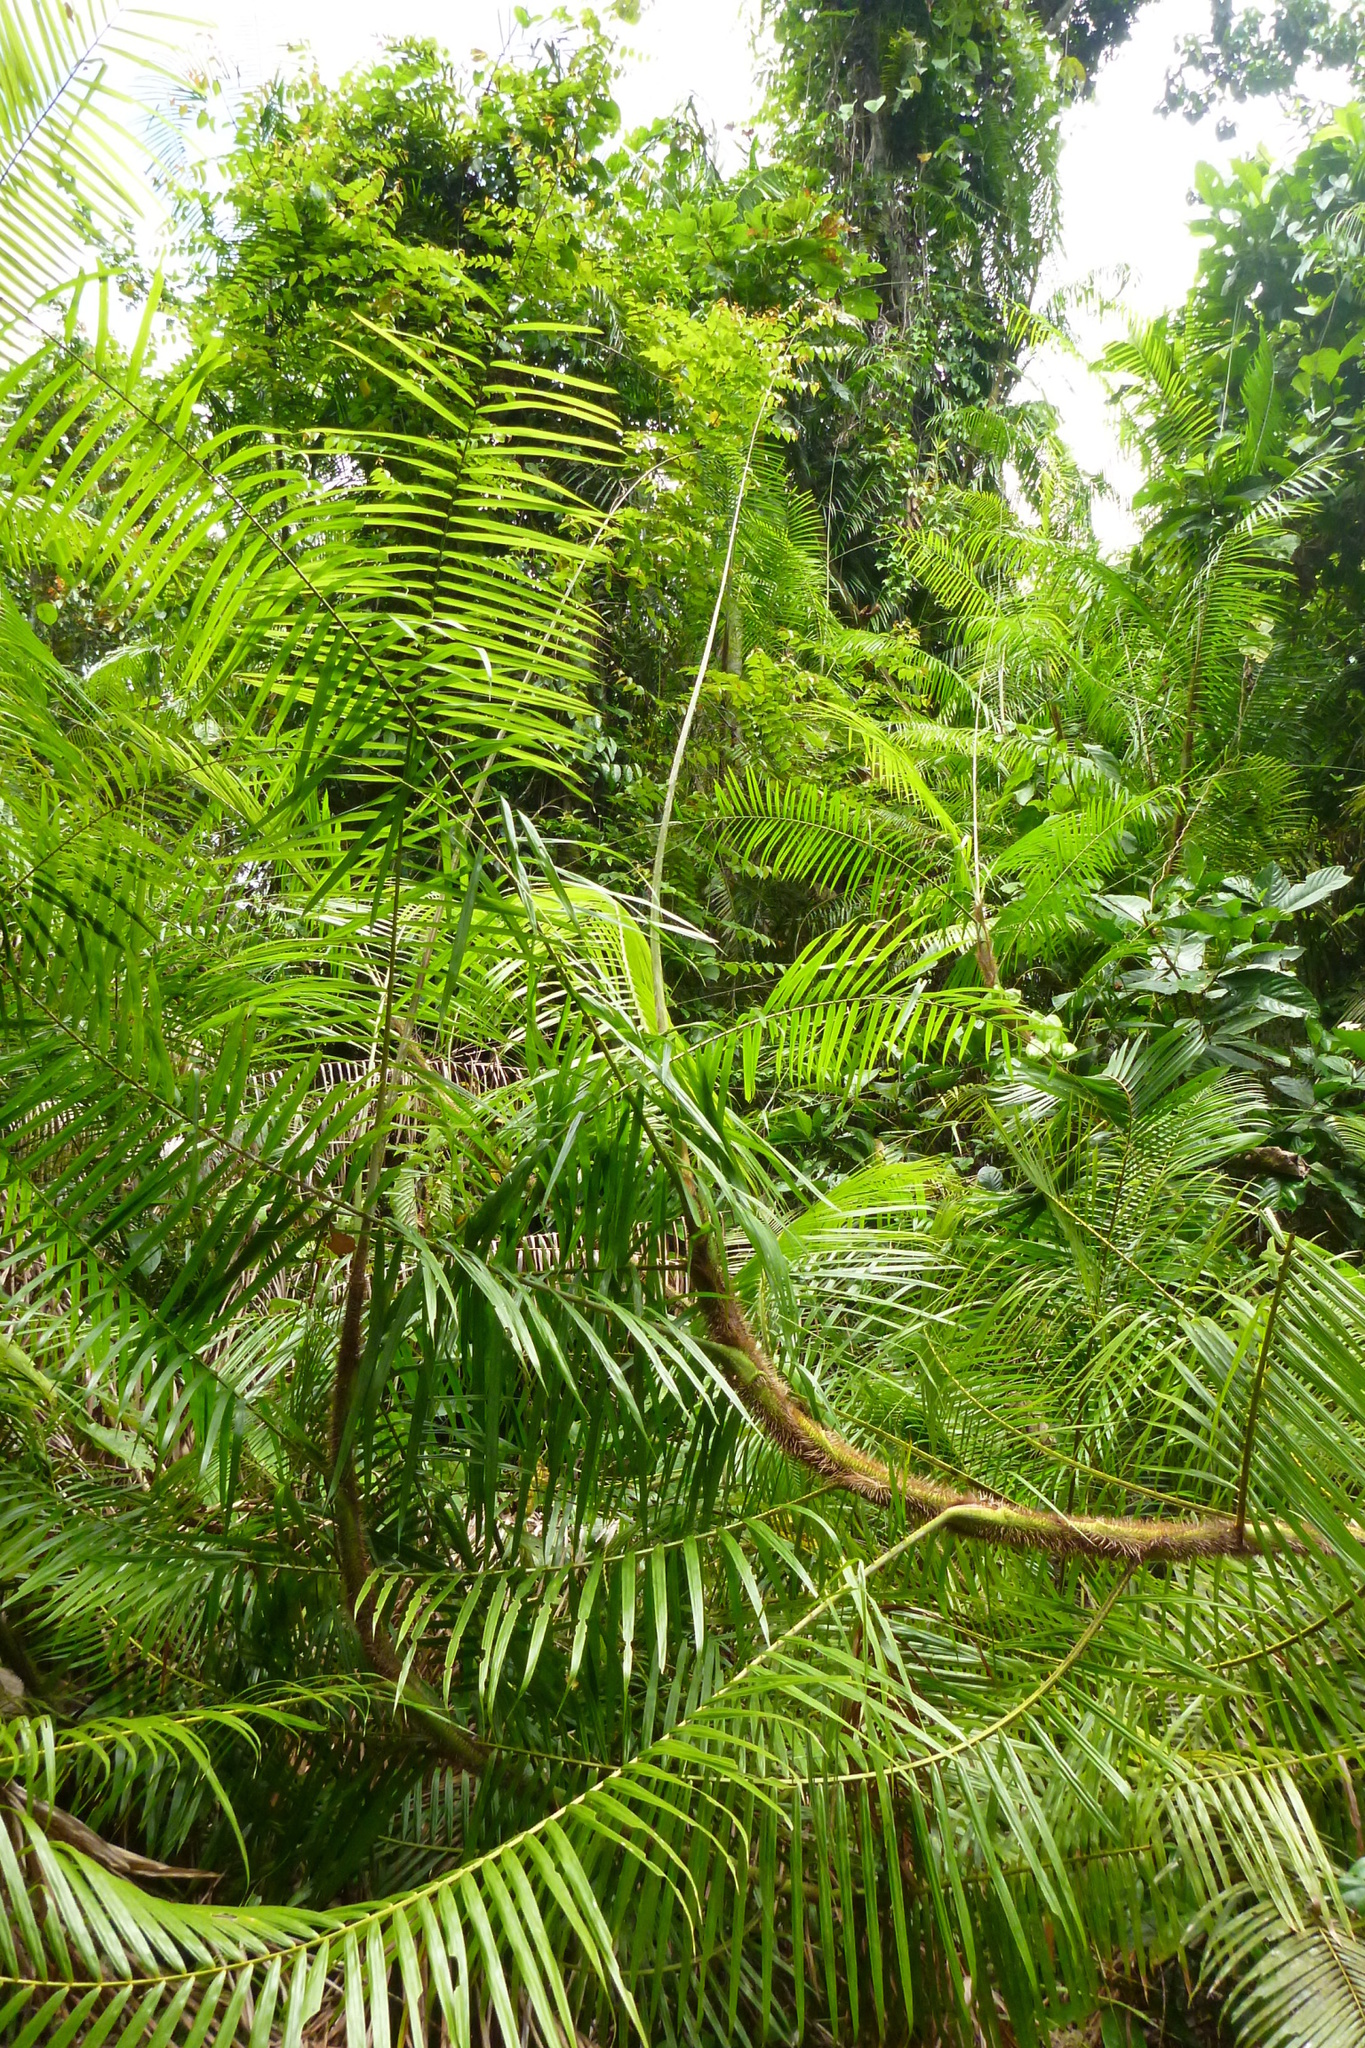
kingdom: Plantae
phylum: Tracheophyta
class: Liliopsida
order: Arecales
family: Arecaceae
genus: Calamus
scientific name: Calamus warburgii
